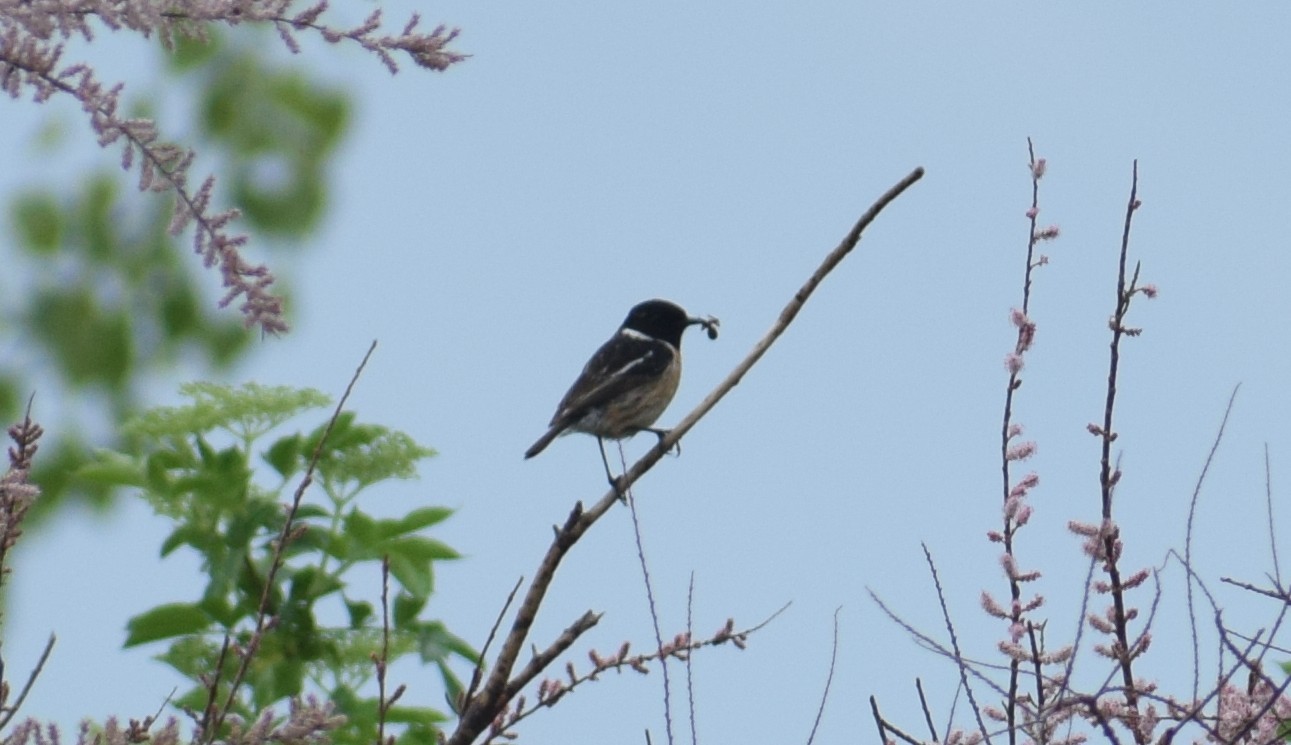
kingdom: Animalia
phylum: Chordata
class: Aves
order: Passeriformes
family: Muscicapidae
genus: Saxicola
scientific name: Saxicola rubicola
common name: European stonechat
